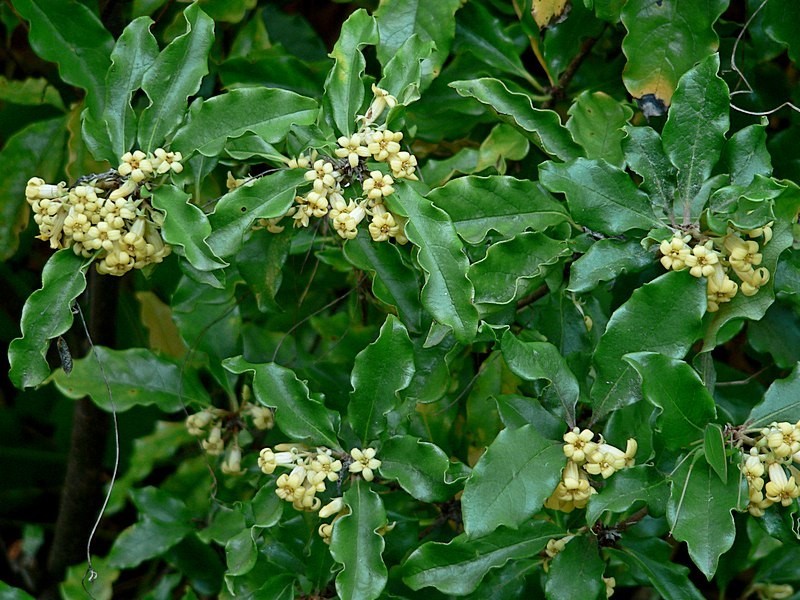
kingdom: Plantae
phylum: Tracheophyta
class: Magnoliopsida
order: Apiales
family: Pittosporaceae
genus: Pittosporum
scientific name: Pittosporum revolutum
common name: Brisbane-laurel
